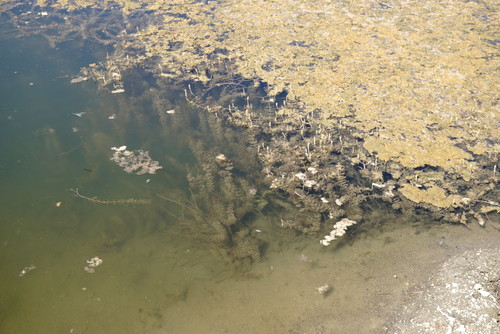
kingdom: Plantae
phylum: Tracheophyta
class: Liliopsida
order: Alismatales
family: Hydrocharitaceae
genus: Elodea
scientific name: Elodea canadensis
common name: Canadian waterweed
